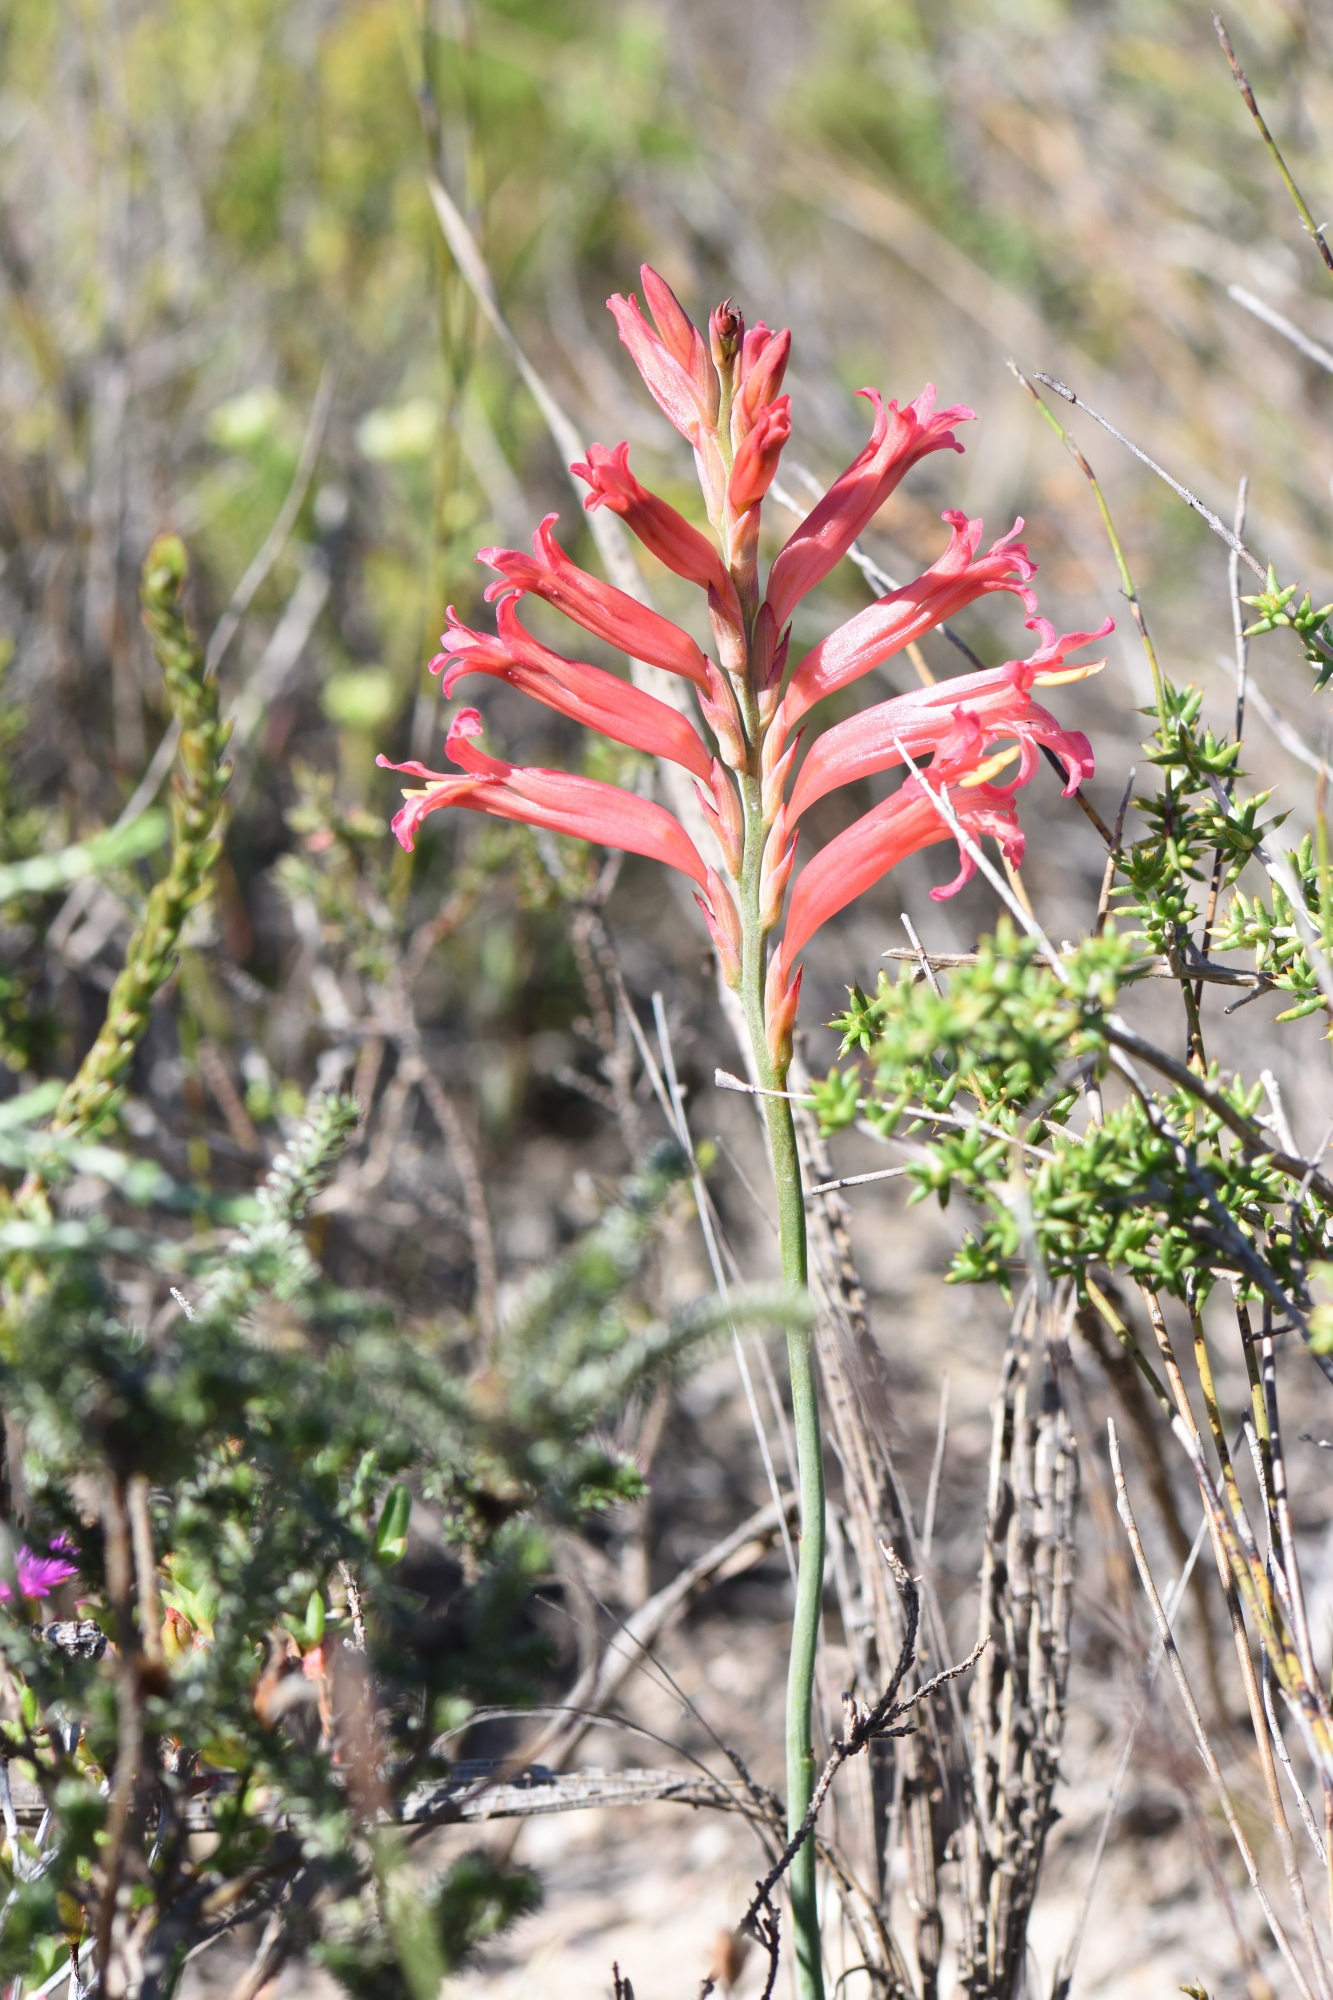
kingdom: Plantae
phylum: Tracheophyta
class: Liliopsida
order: Asparagales
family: Iridaceae
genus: Tritoniopsis
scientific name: Tritoniopsis antholyza
